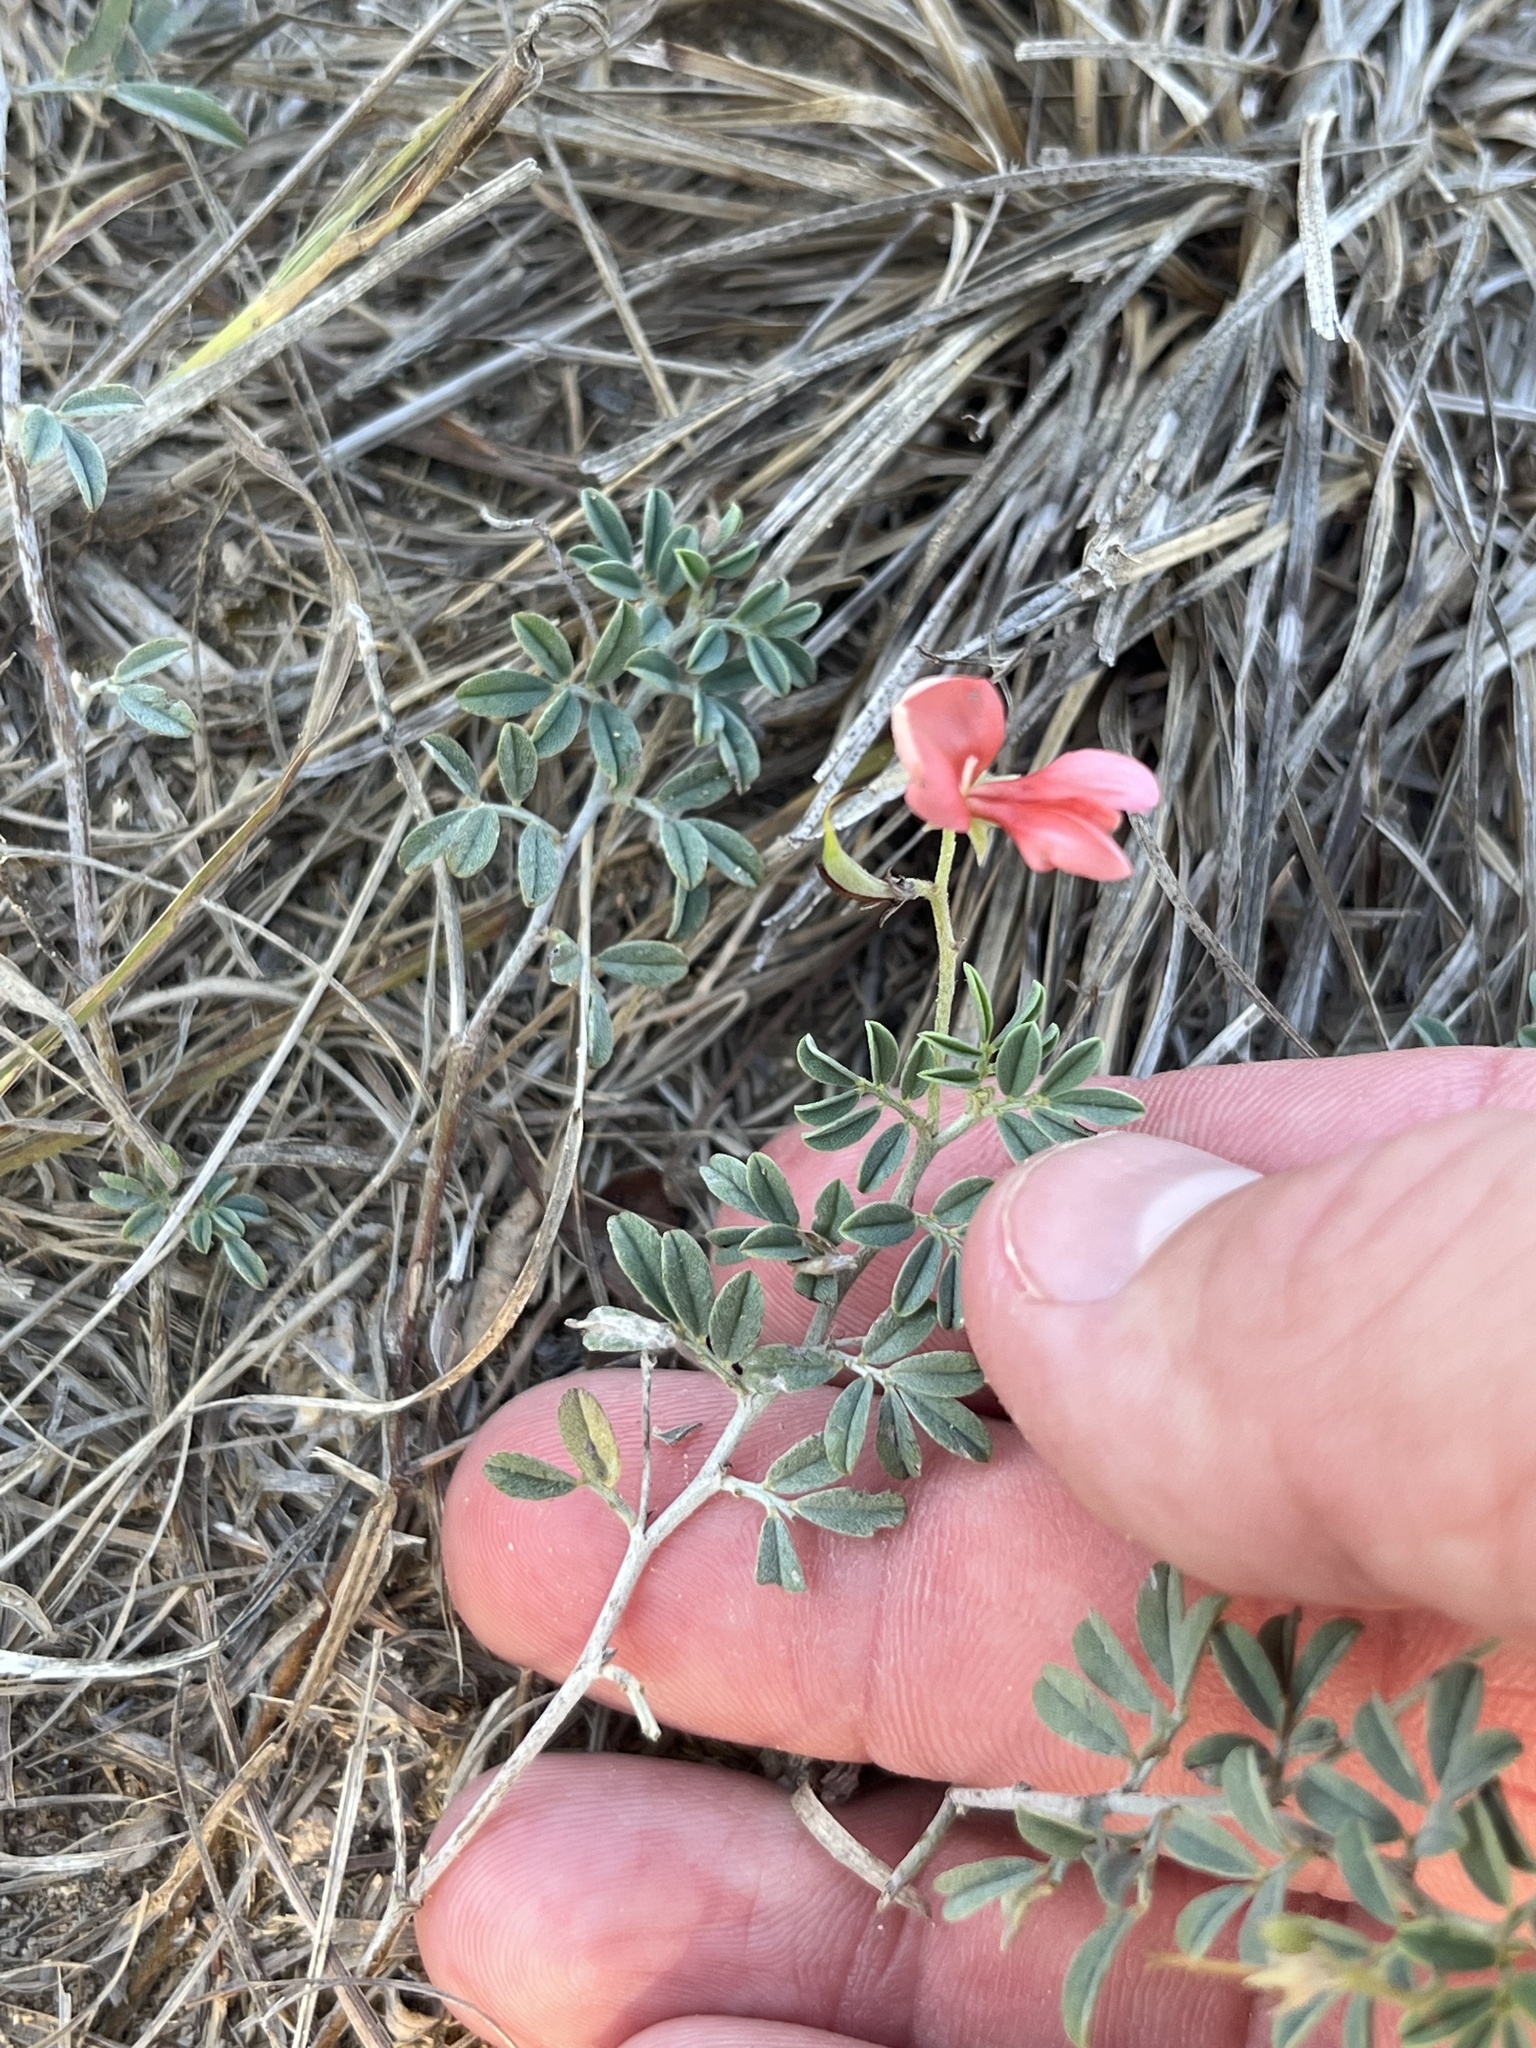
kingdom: Plantae
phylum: Tracheophyta
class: Magnoliopsida
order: Fabales
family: Fabaceae
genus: Indigofera
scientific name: Indigofera miniata
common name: Coast indigo
